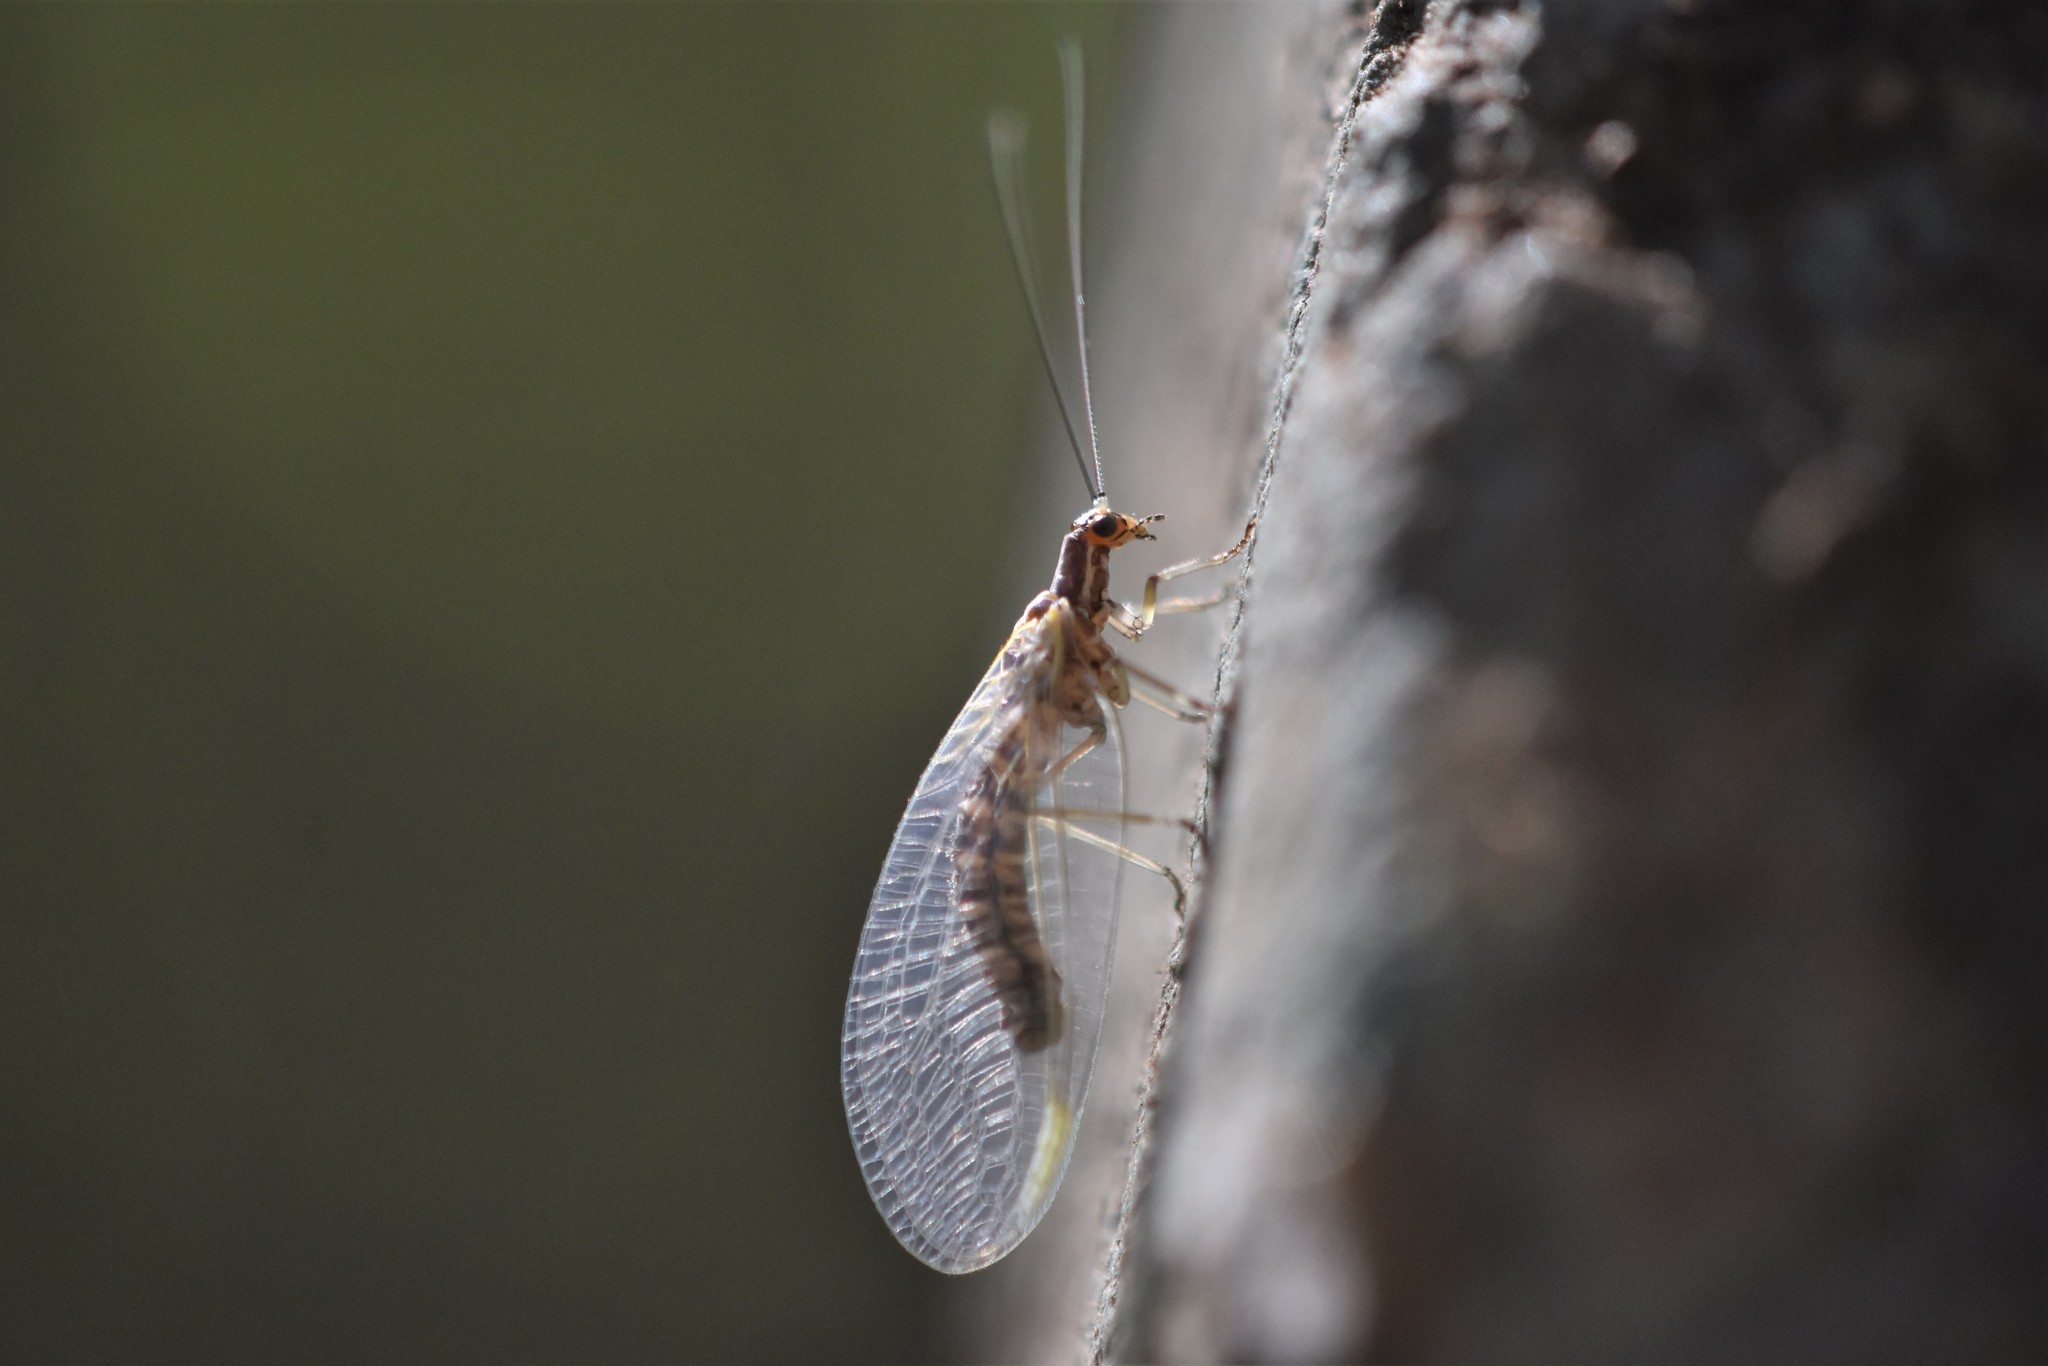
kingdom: Animalia
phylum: Arthropoda
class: Insecta
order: Neuroptera
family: Chrysopidae
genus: Nothochrysa
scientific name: Nothochrysa californica
